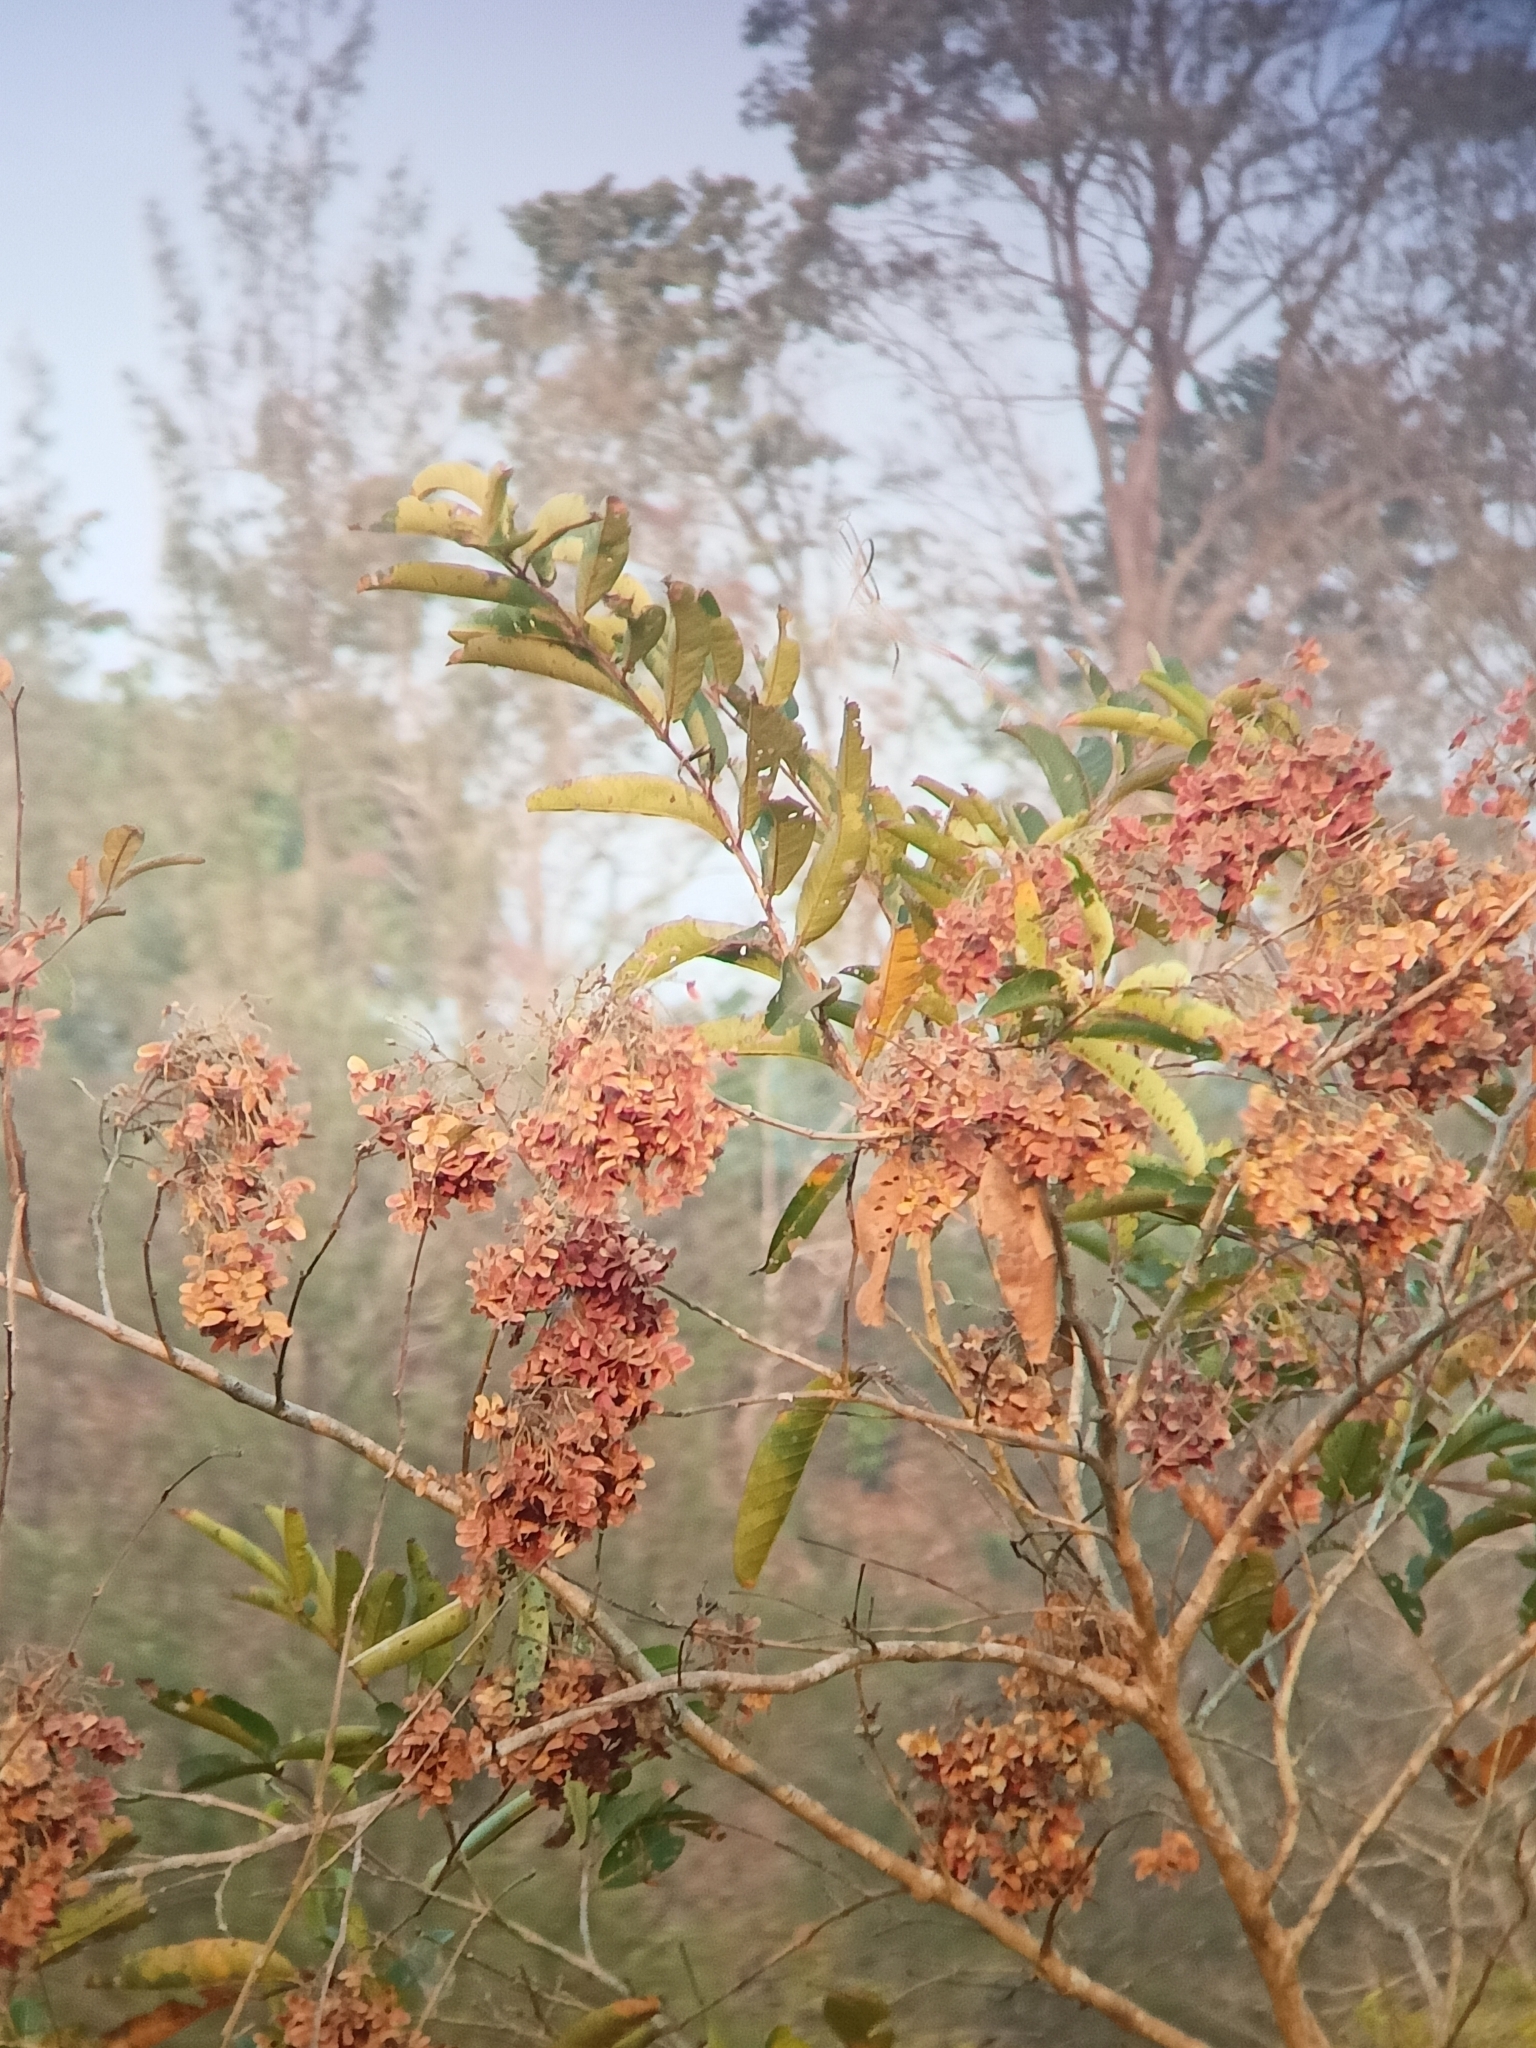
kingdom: Plantae
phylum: Tracheophyta
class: Magnoliopsida
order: Myrtales
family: Combretaceae
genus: Terminalia
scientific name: Terminalia paniculata
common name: Flowering murdah
